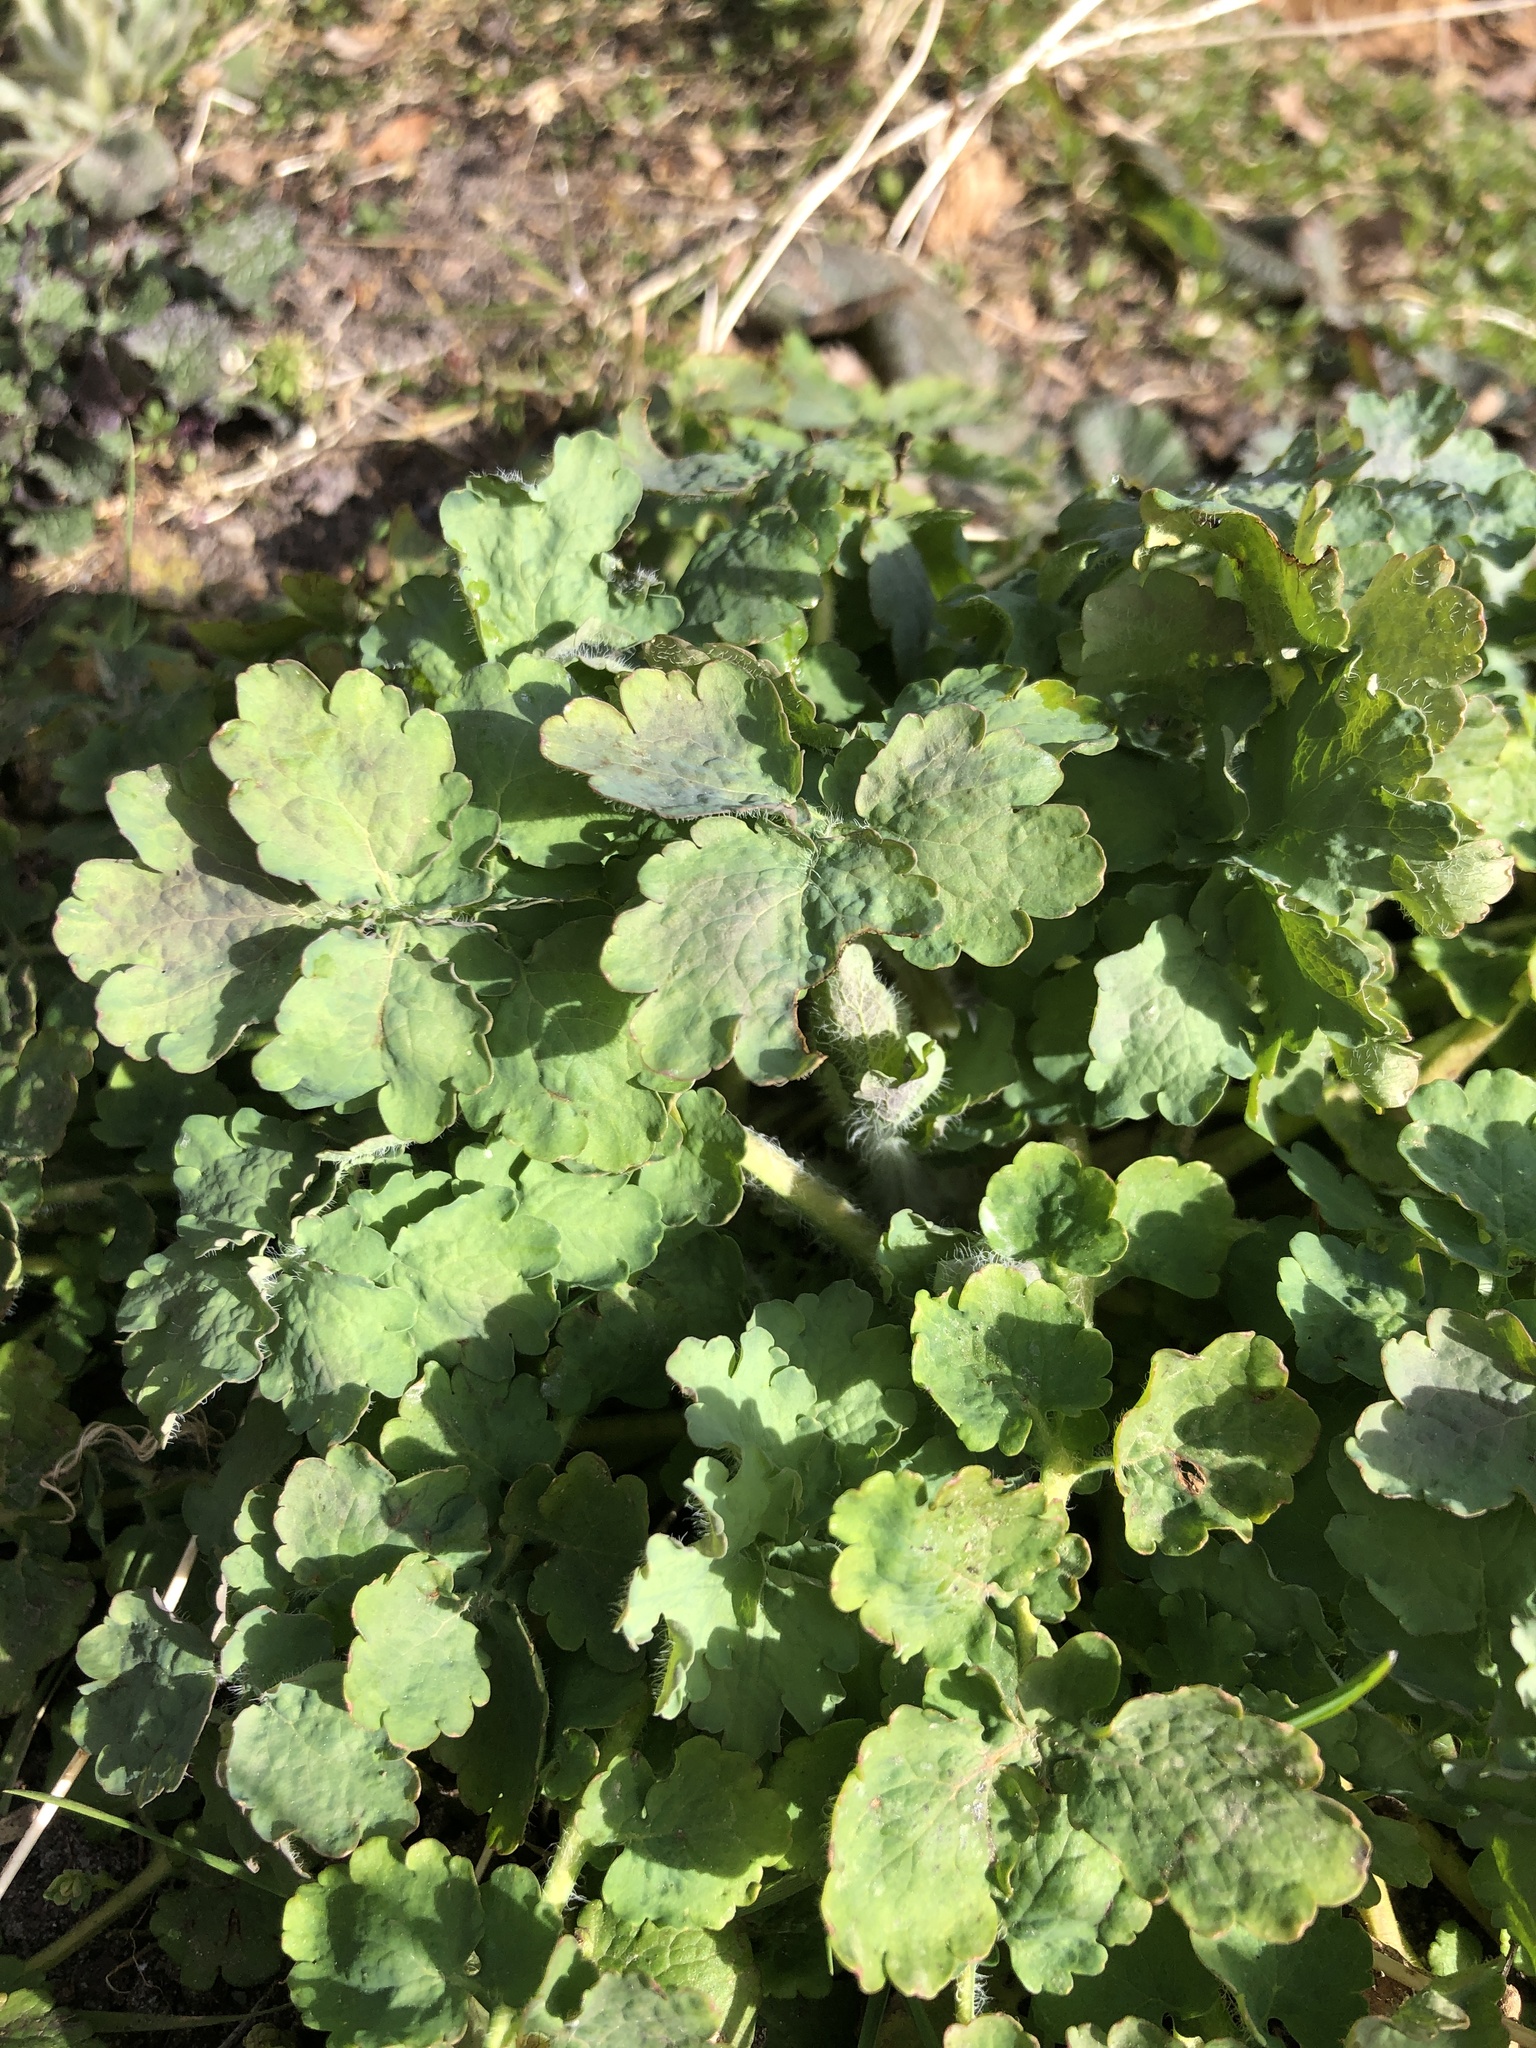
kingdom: Plantae
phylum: Tracheophyta
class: Magnoliopsida
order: Ranunculales
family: Papaveraceae
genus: Chelidonium
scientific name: Chelidonium majus
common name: Greater celandine
